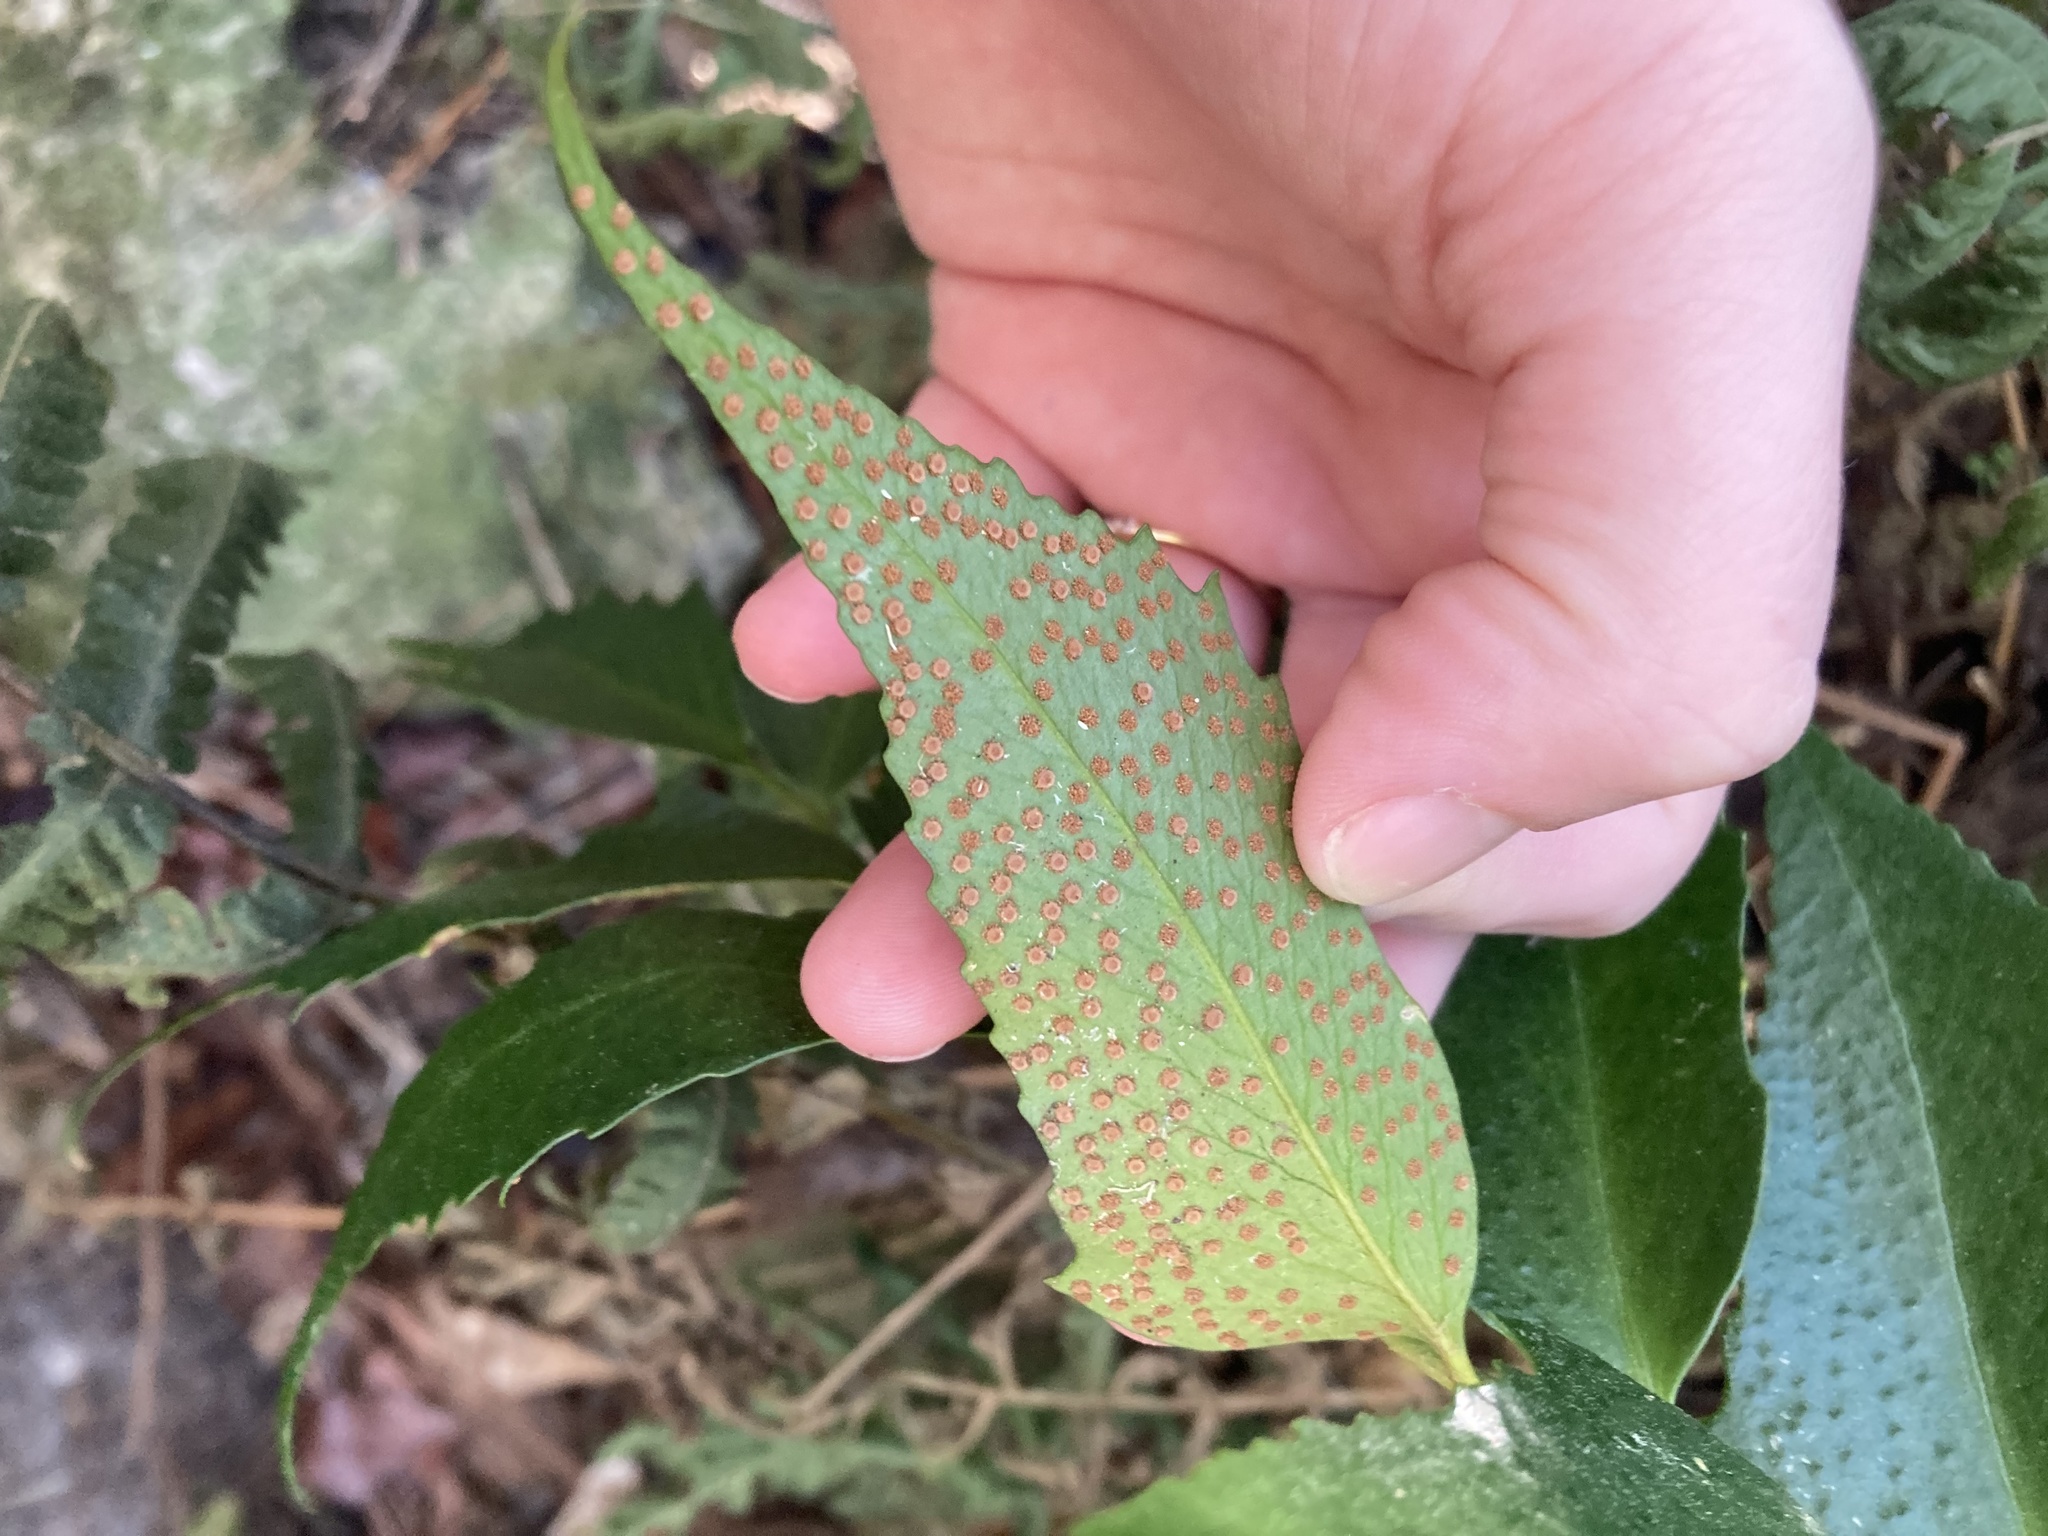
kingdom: Plantae
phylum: Tracheophyta
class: Polypodiopsida
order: Polypodiales
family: Dryopteridaceae
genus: Cyrtomium
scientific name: Cyrtomium falcatum
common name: House holly-fern
